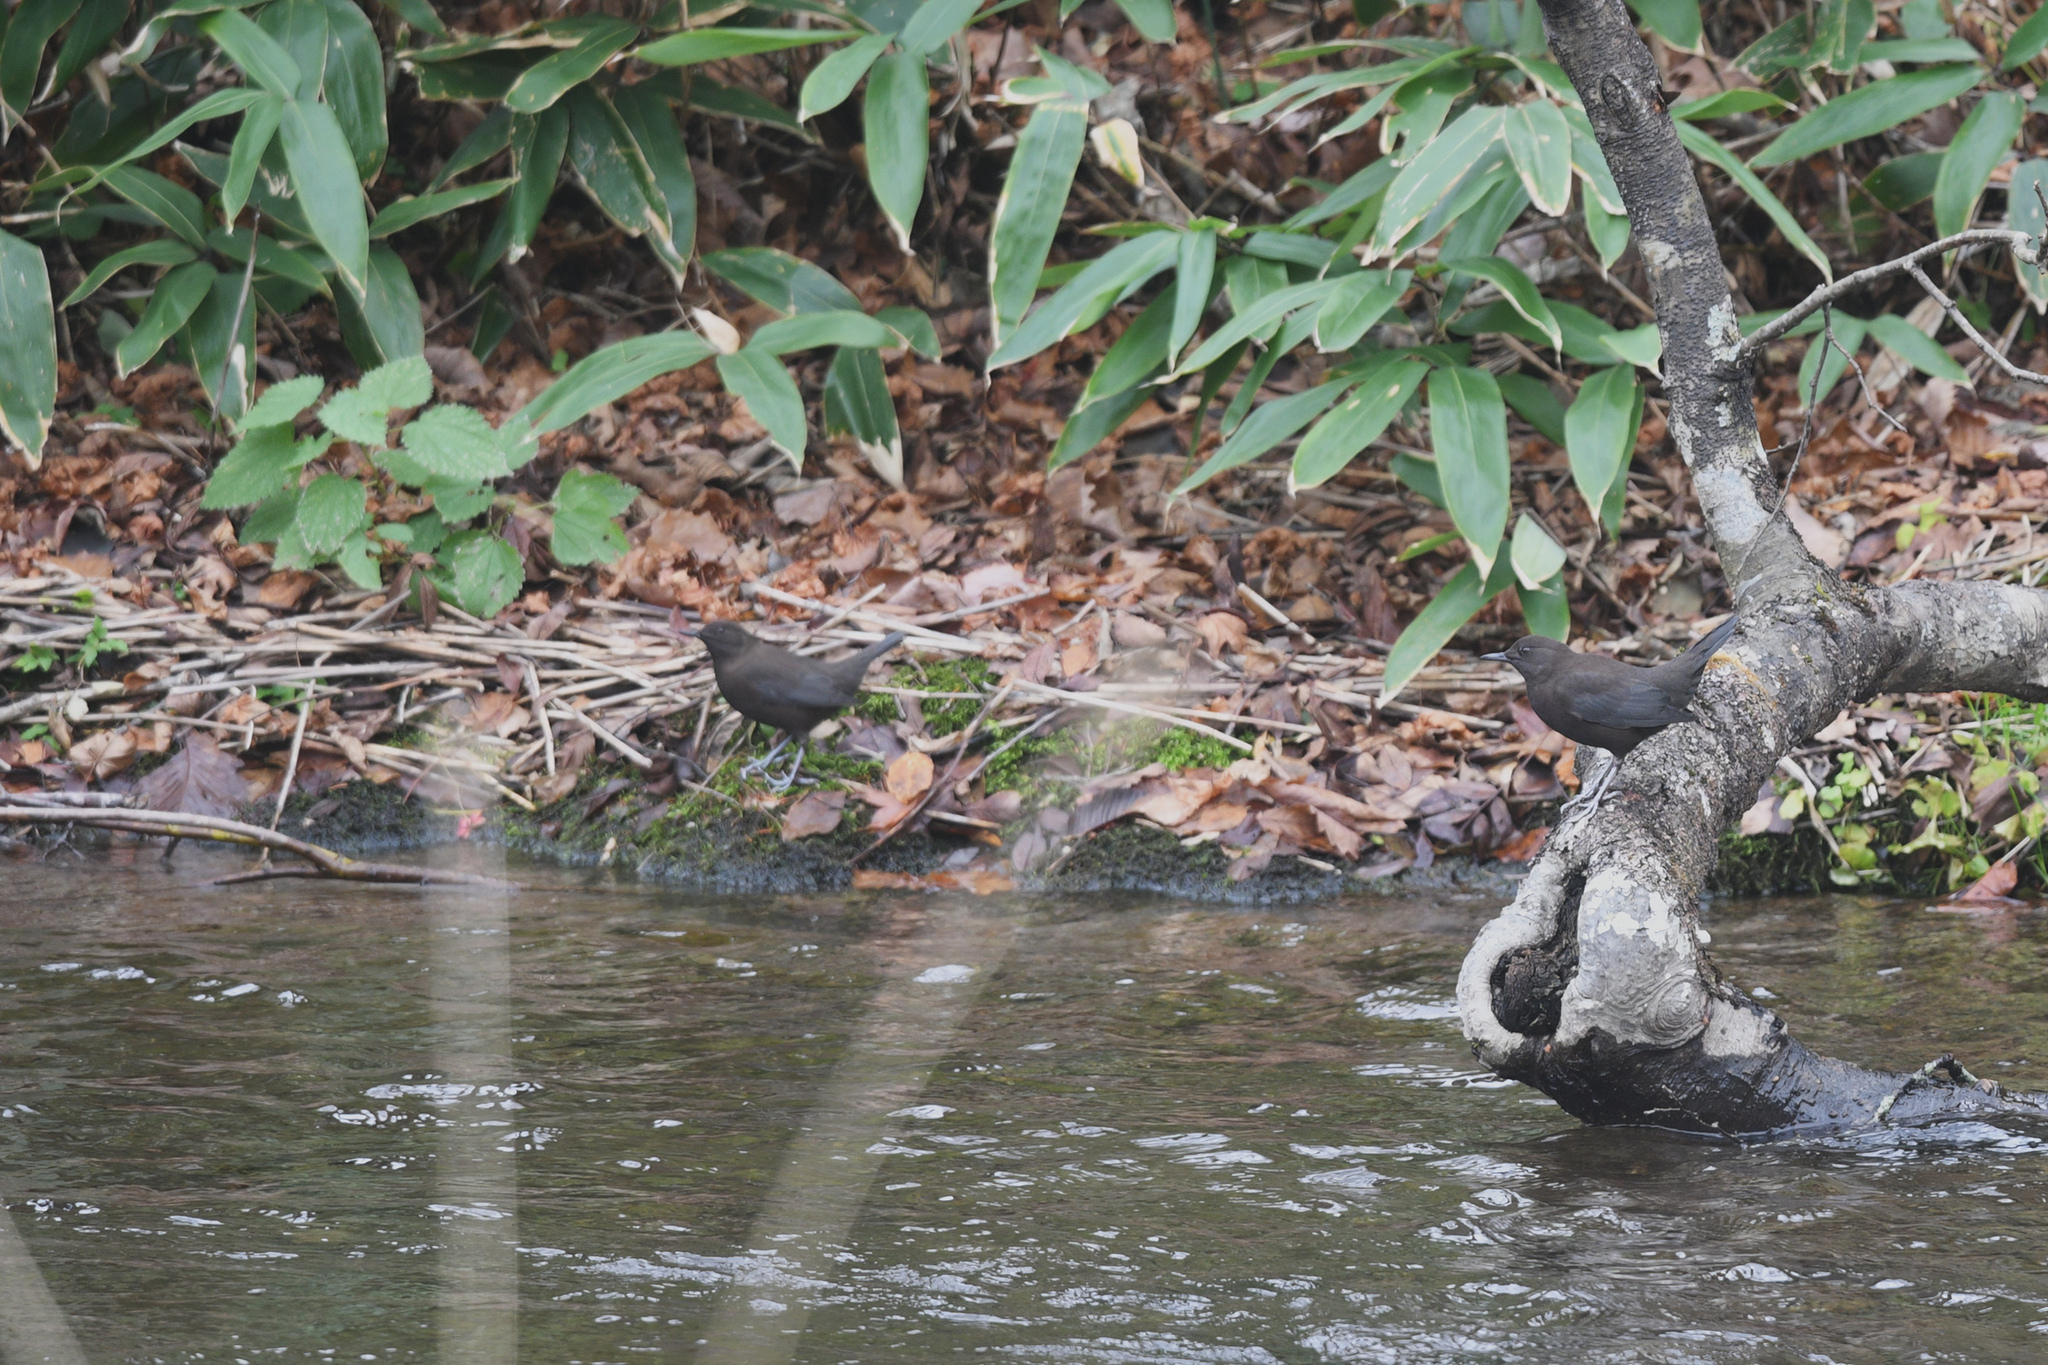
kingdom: Animalia
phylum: Chordata
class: Aves
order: Passeriformes
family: Cinclidae
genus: Cinclus
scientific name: Cinclus pallasii
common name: Brown dipper
